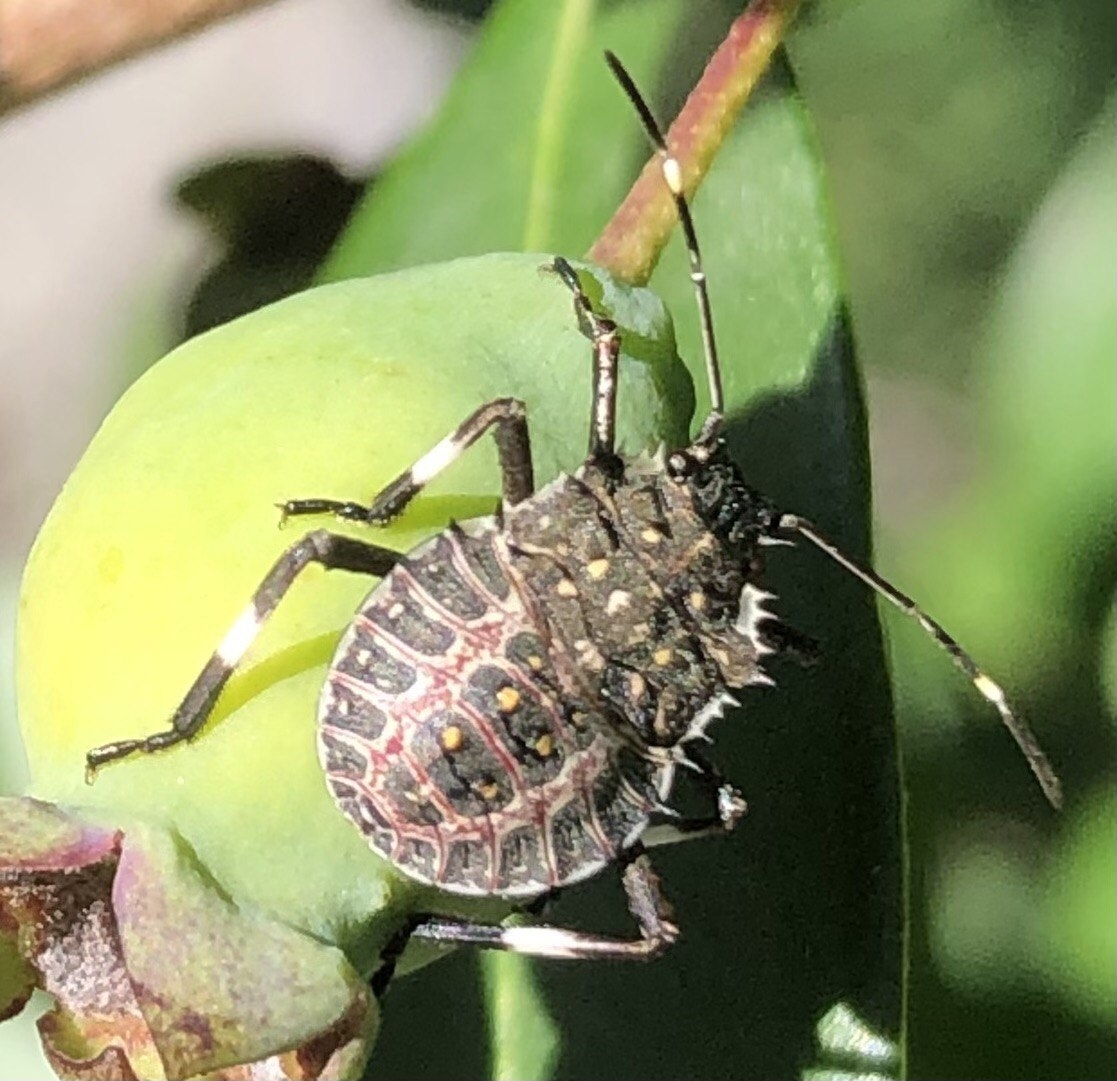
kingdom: Animalia
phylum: Arthropoda
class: Insecta
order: Hemiptera
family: Pentatomidae
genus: Halyomorpha
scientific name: Halyomorpha halys
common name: Brown marmorated stink bug
